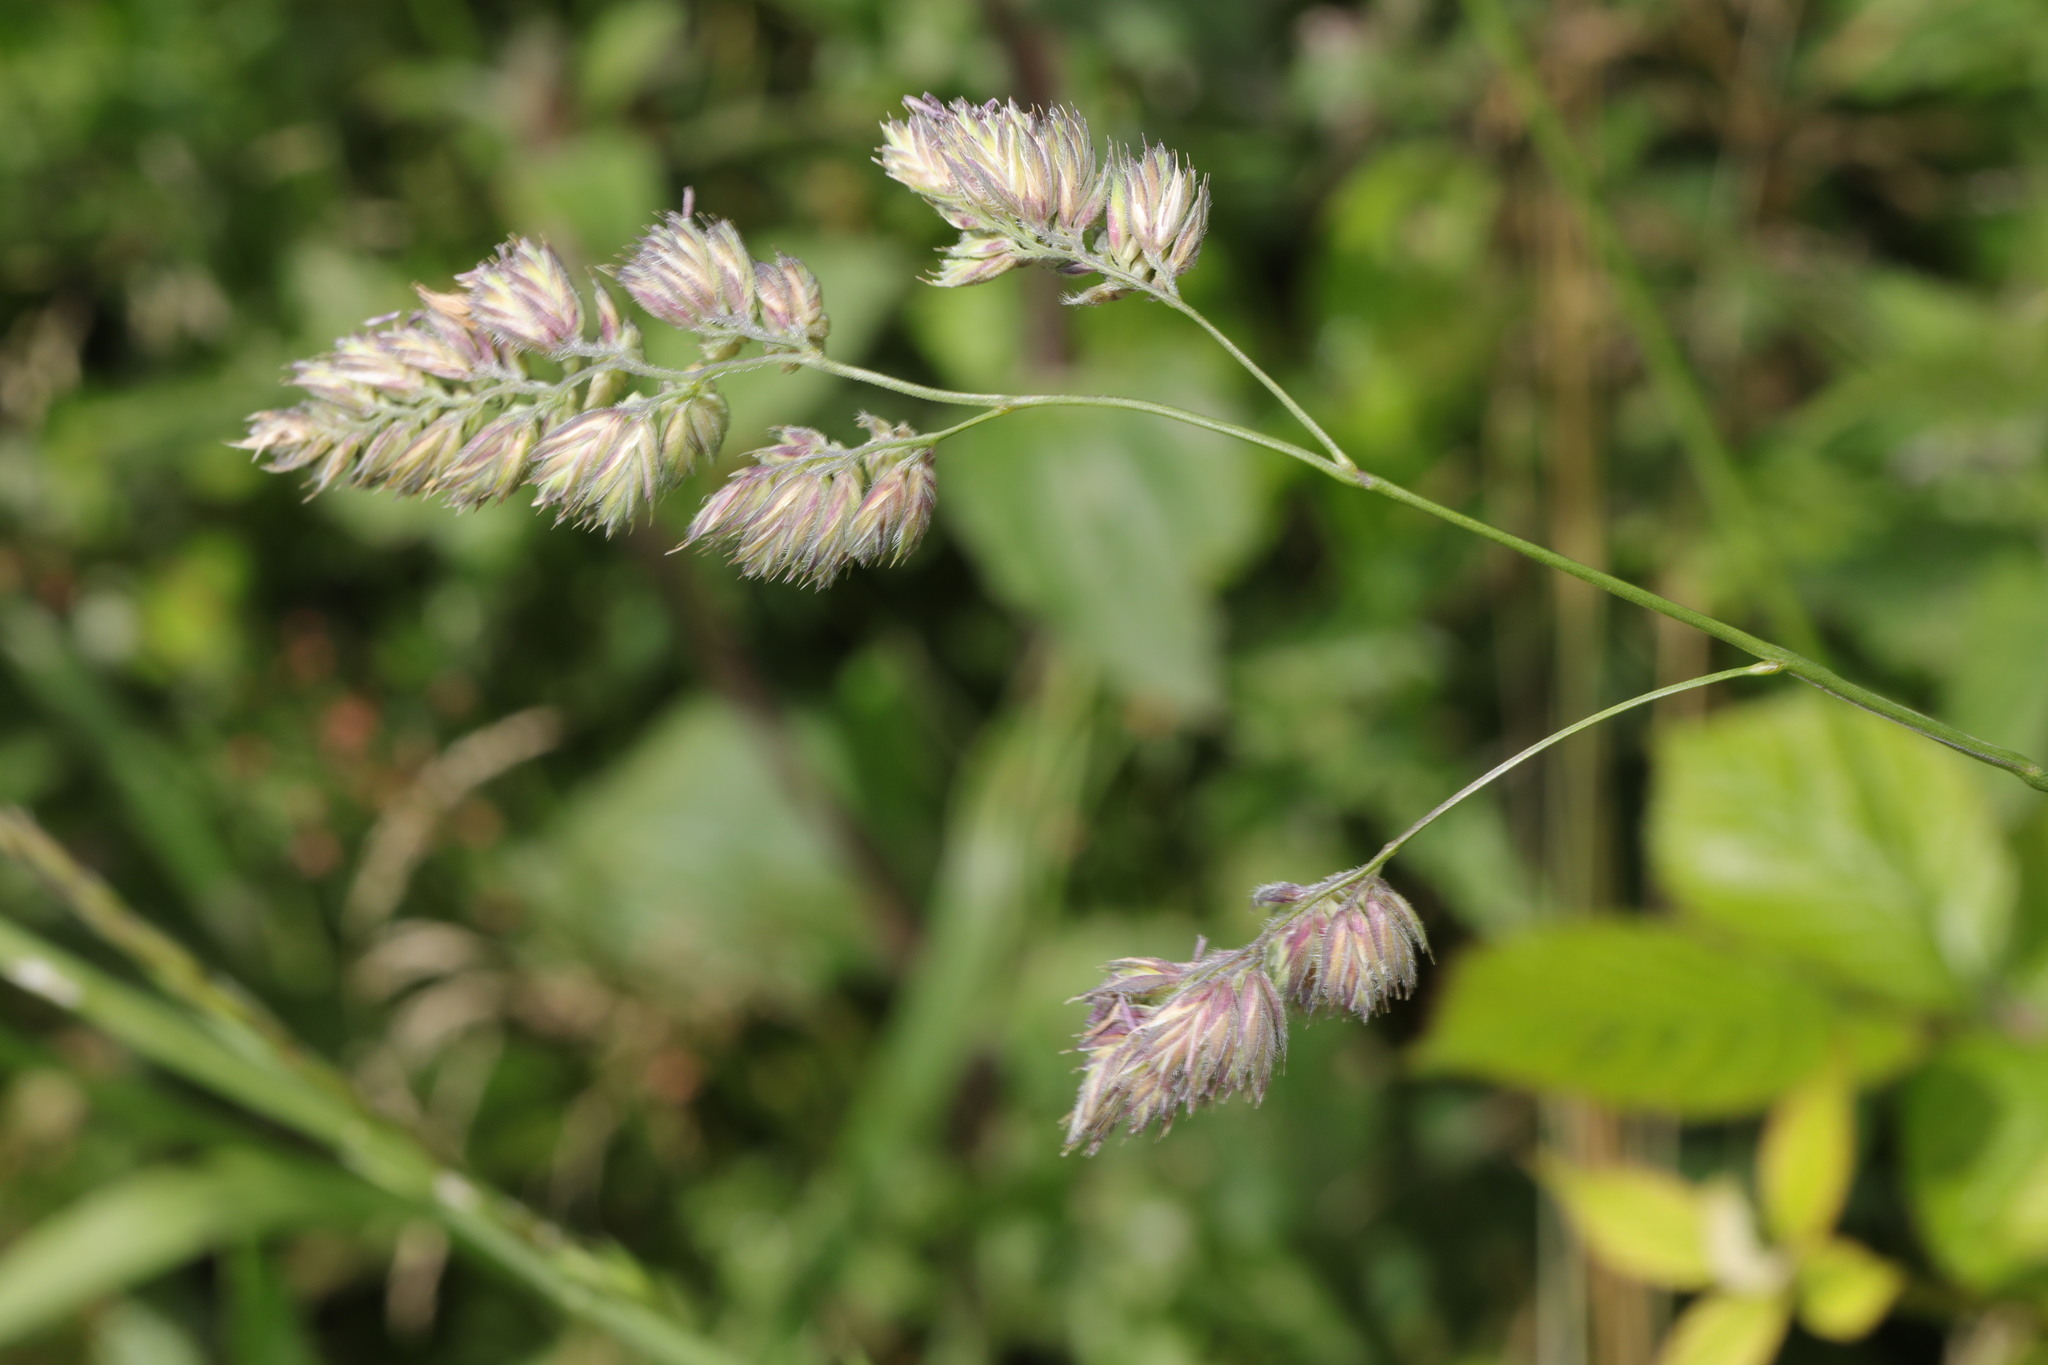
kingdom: Plantae
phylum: Tracheophyta
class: Liliopsida
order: Poales
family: Poaceae
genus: Dactylis
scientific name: Dactylis glomerata
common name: Orchardgrass
